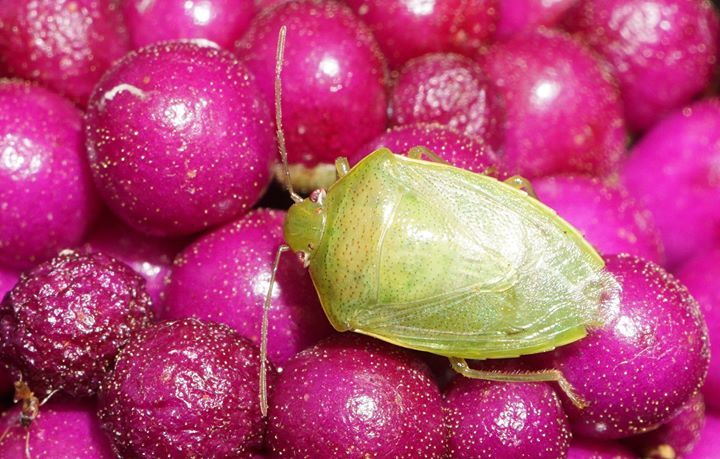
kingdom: Animalia
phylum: Arthropoda
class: Insecta
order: Hemiptera
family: Pentatomidae
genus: Banasa
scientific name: Banasa herbacea
